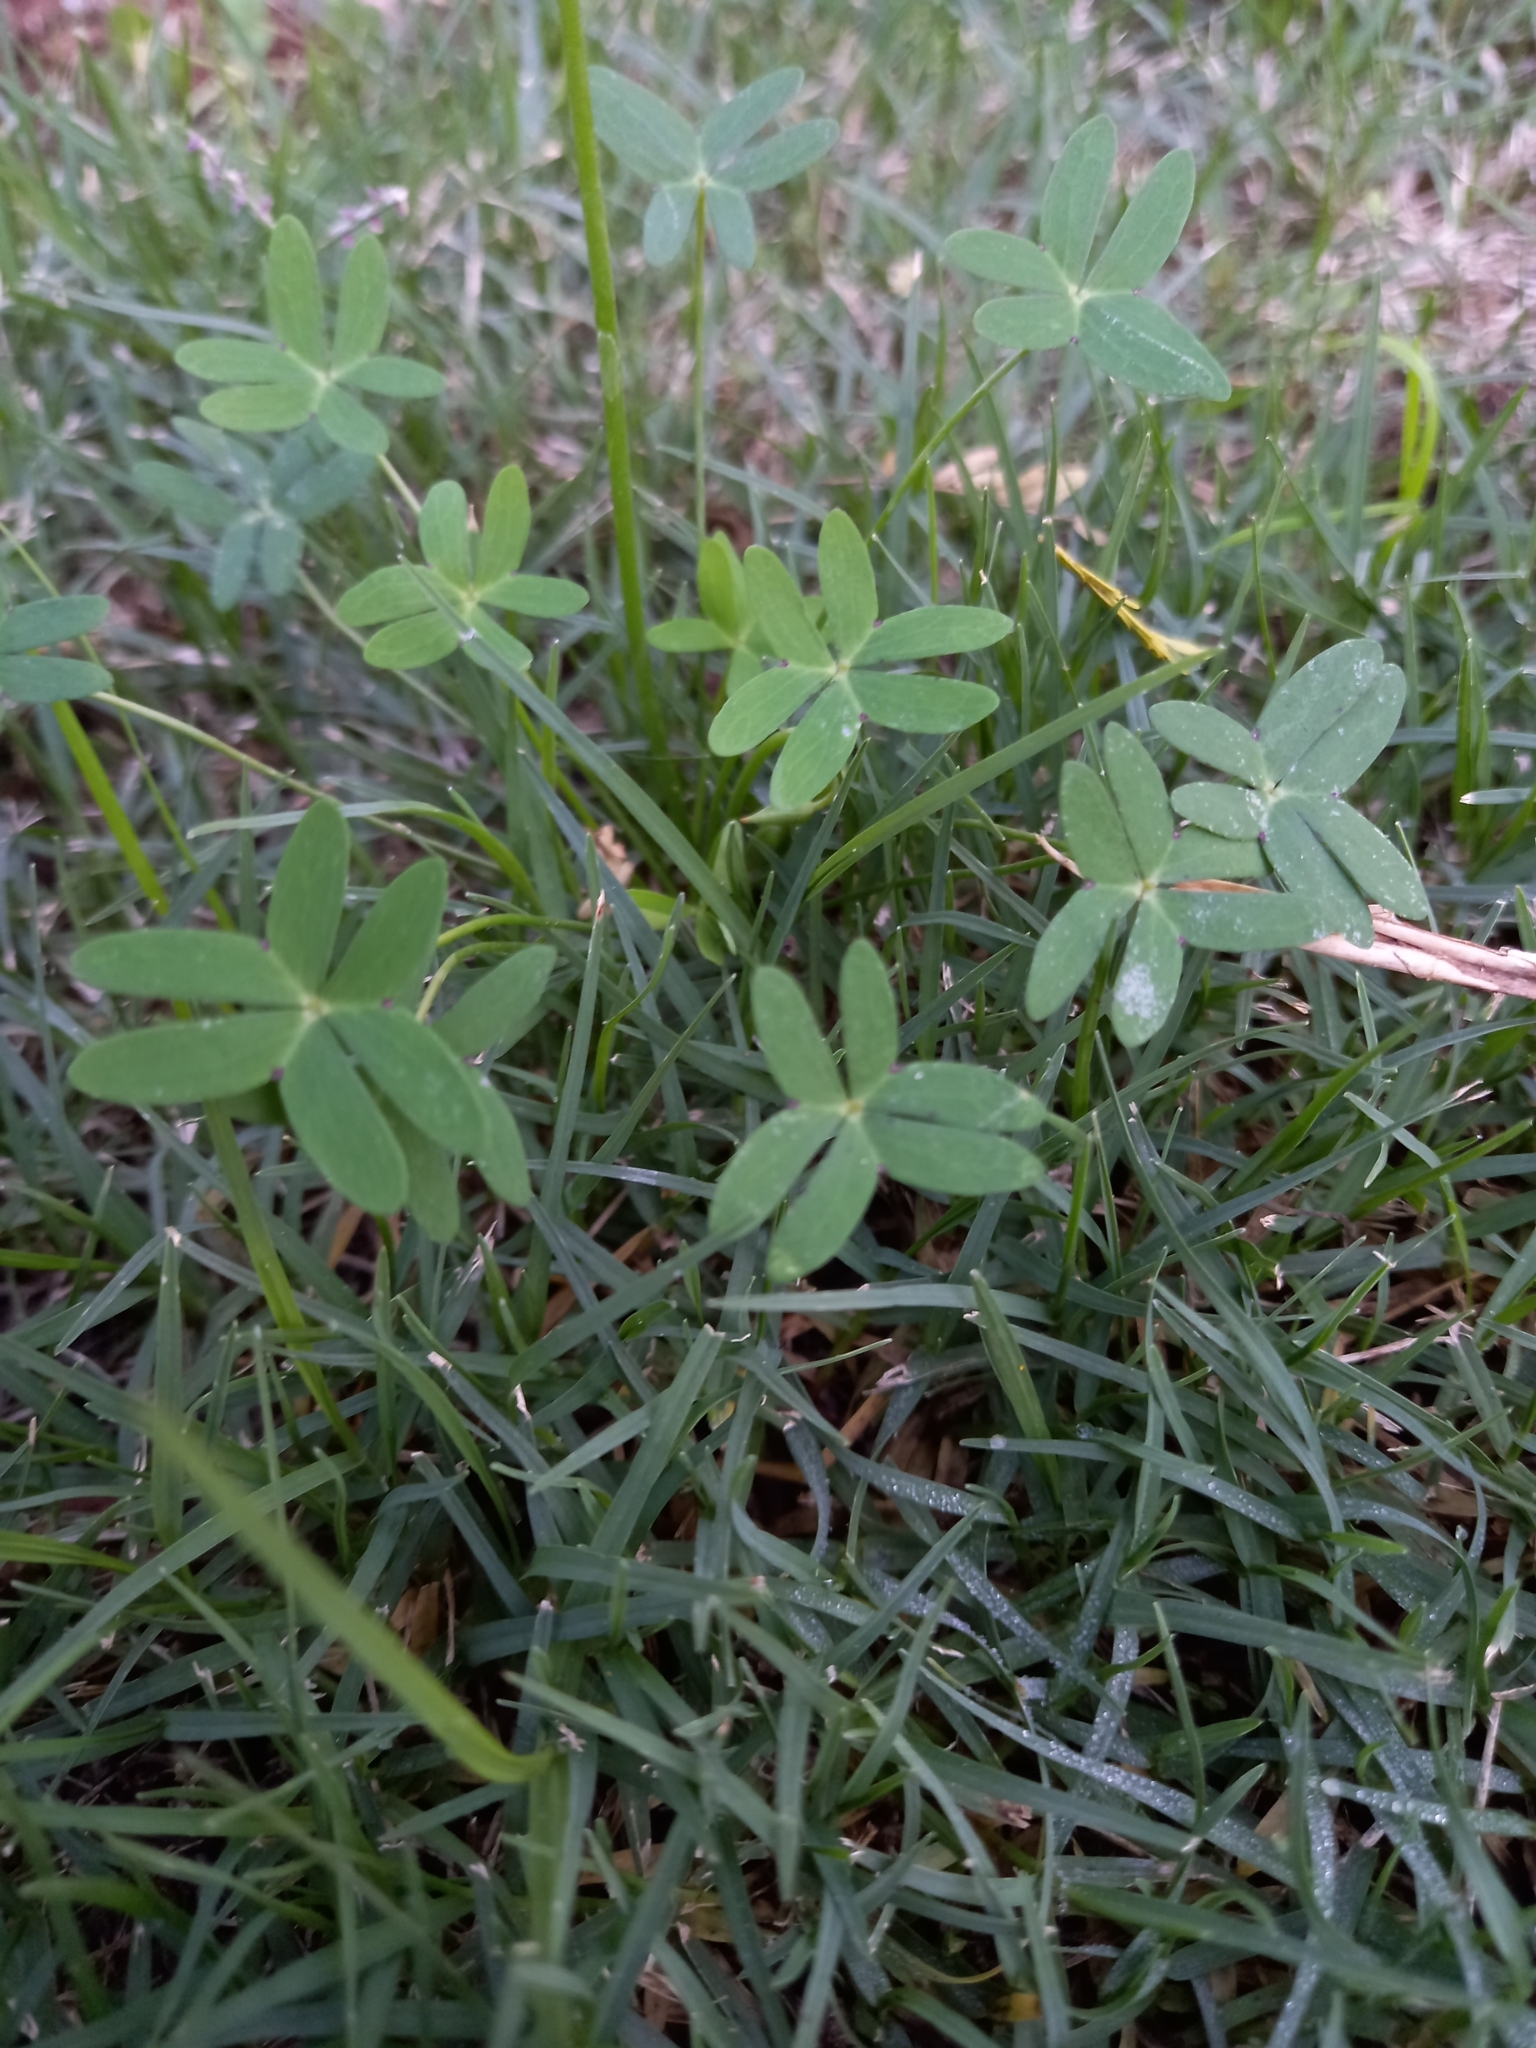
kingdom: Plantae
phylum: Tracheophyta
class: Magnoliopsida
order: Oxalidales
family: Oxalidaceae
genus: Oxalis
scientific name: Oxalis stellata
